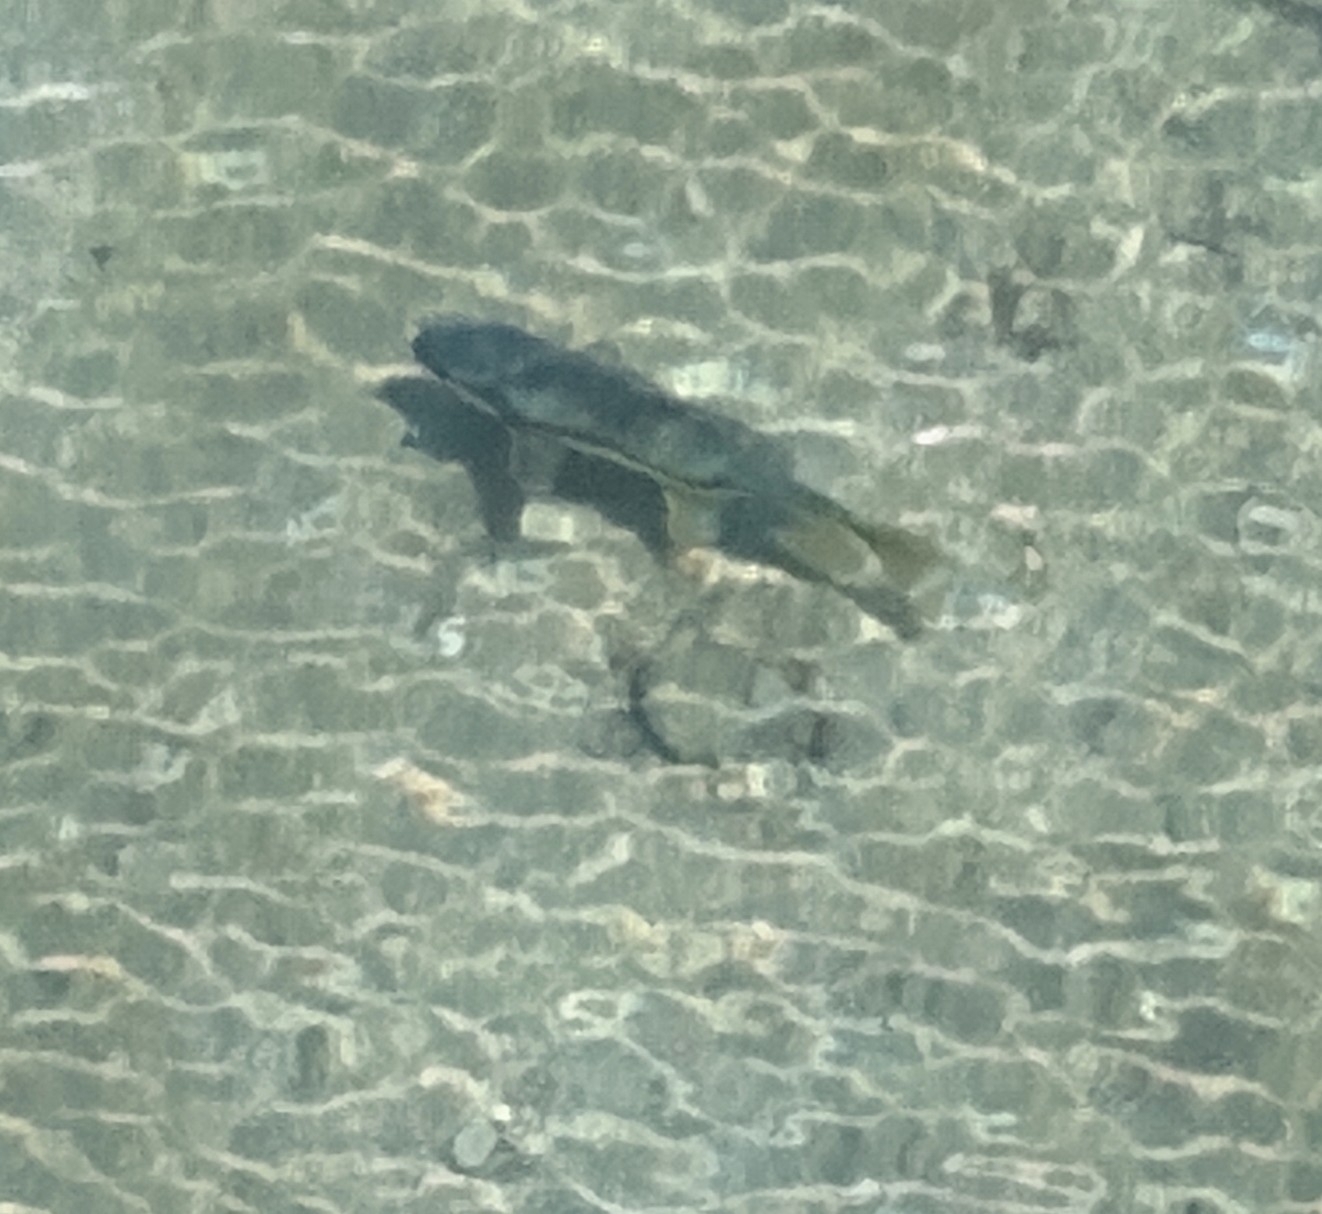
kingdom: Animalia
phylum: Chordata
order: Cypriniformes
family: Catostomidae
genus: Catostomus
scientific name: Catostomus macrocheilus
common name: Largescale sucker
